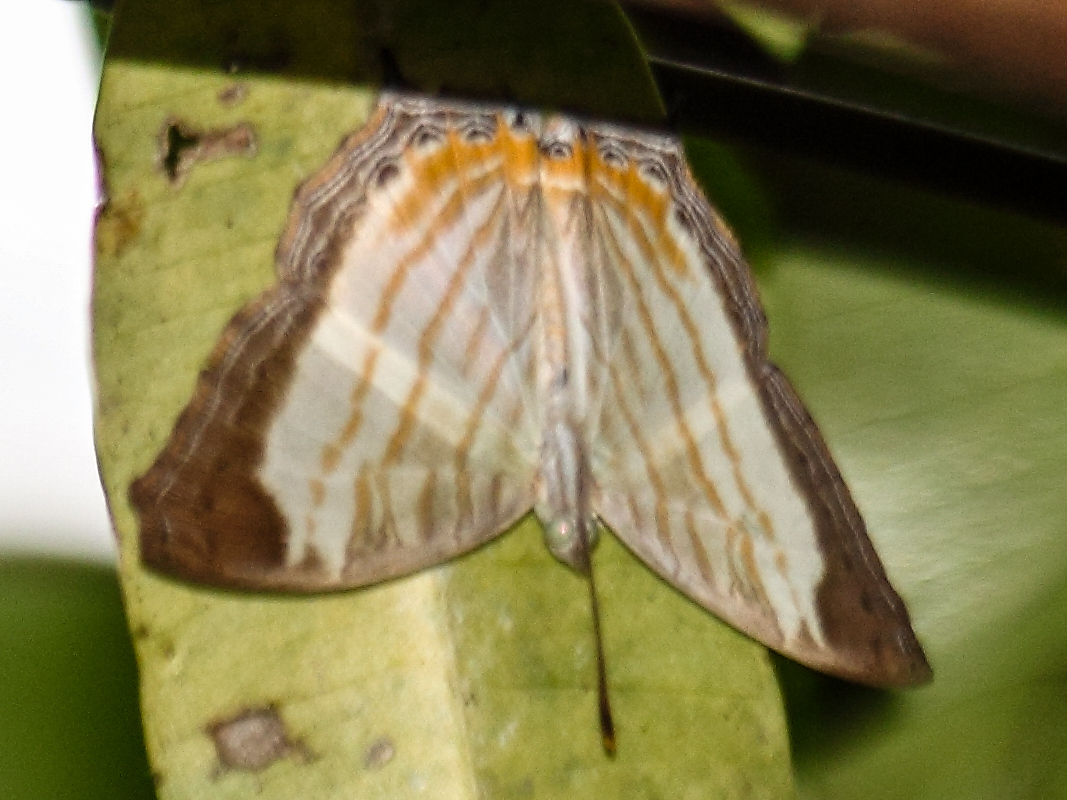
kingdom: Animalia
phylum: Arthropoda
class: Insecta
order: Lepidoptera
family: Nymphalidae
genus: Cyrestis
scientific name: Cyrestis themire
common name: Little mapwing
